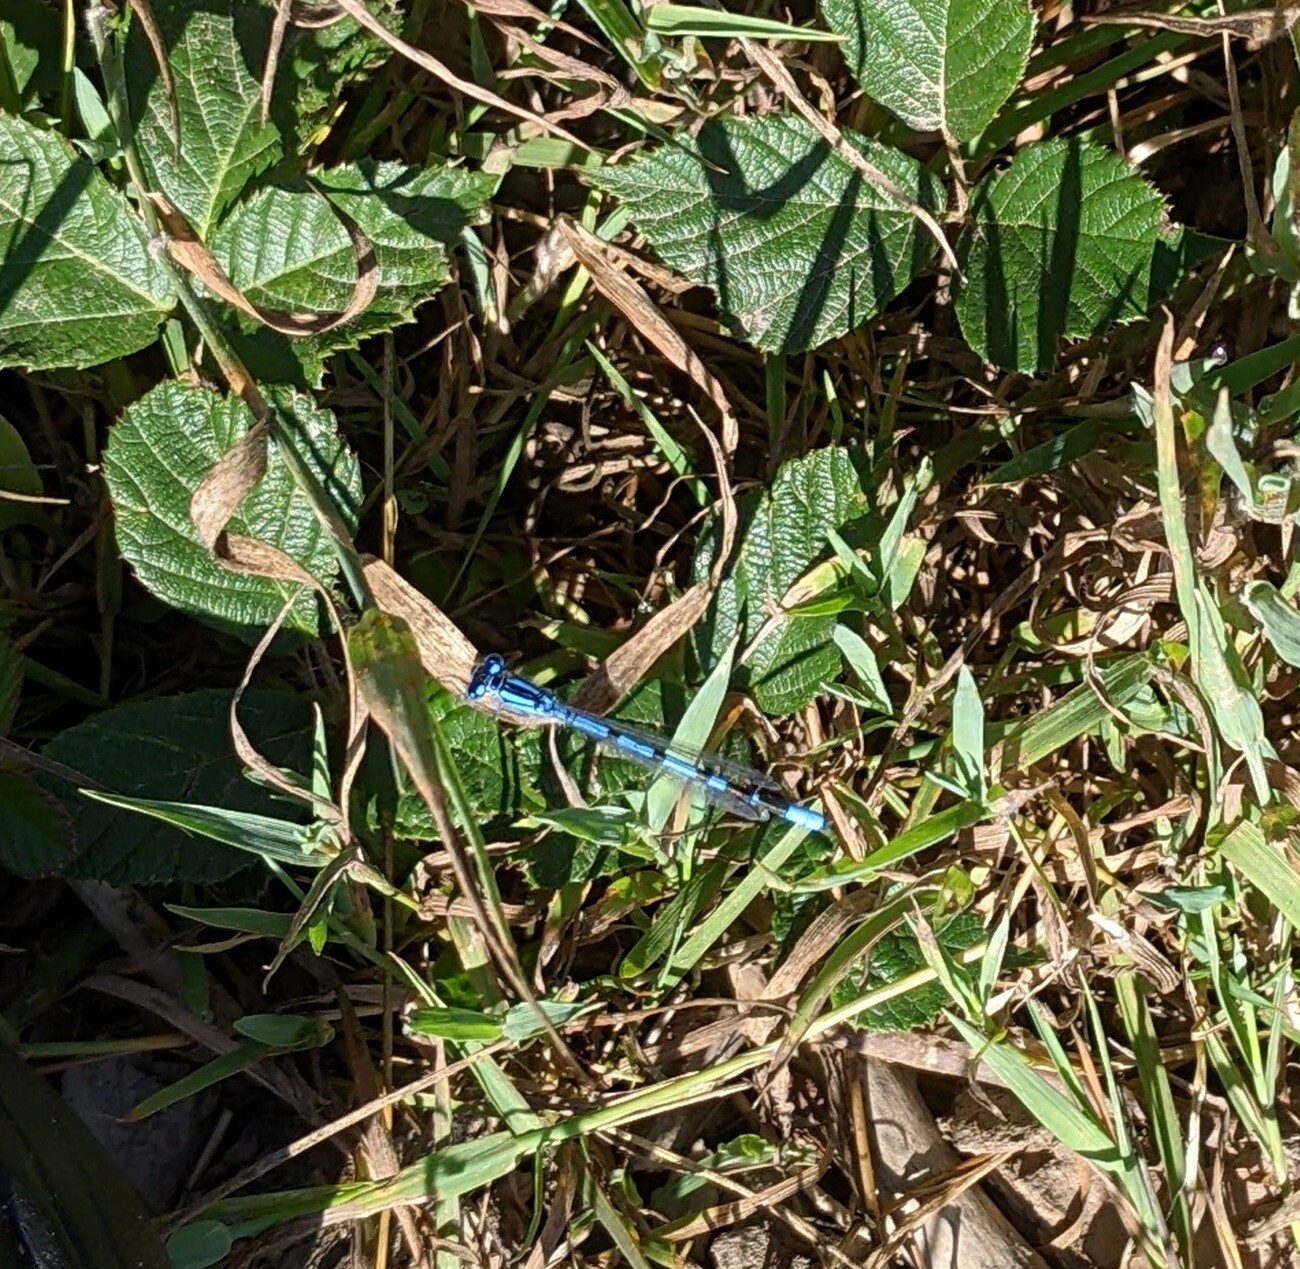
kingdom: Animalia
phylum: Arthropoda
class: Insecta
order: Odonata
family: Coenagrionidae
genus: Enallagma
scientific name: Enallagma cyathigerum
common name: Common blue damselfly
